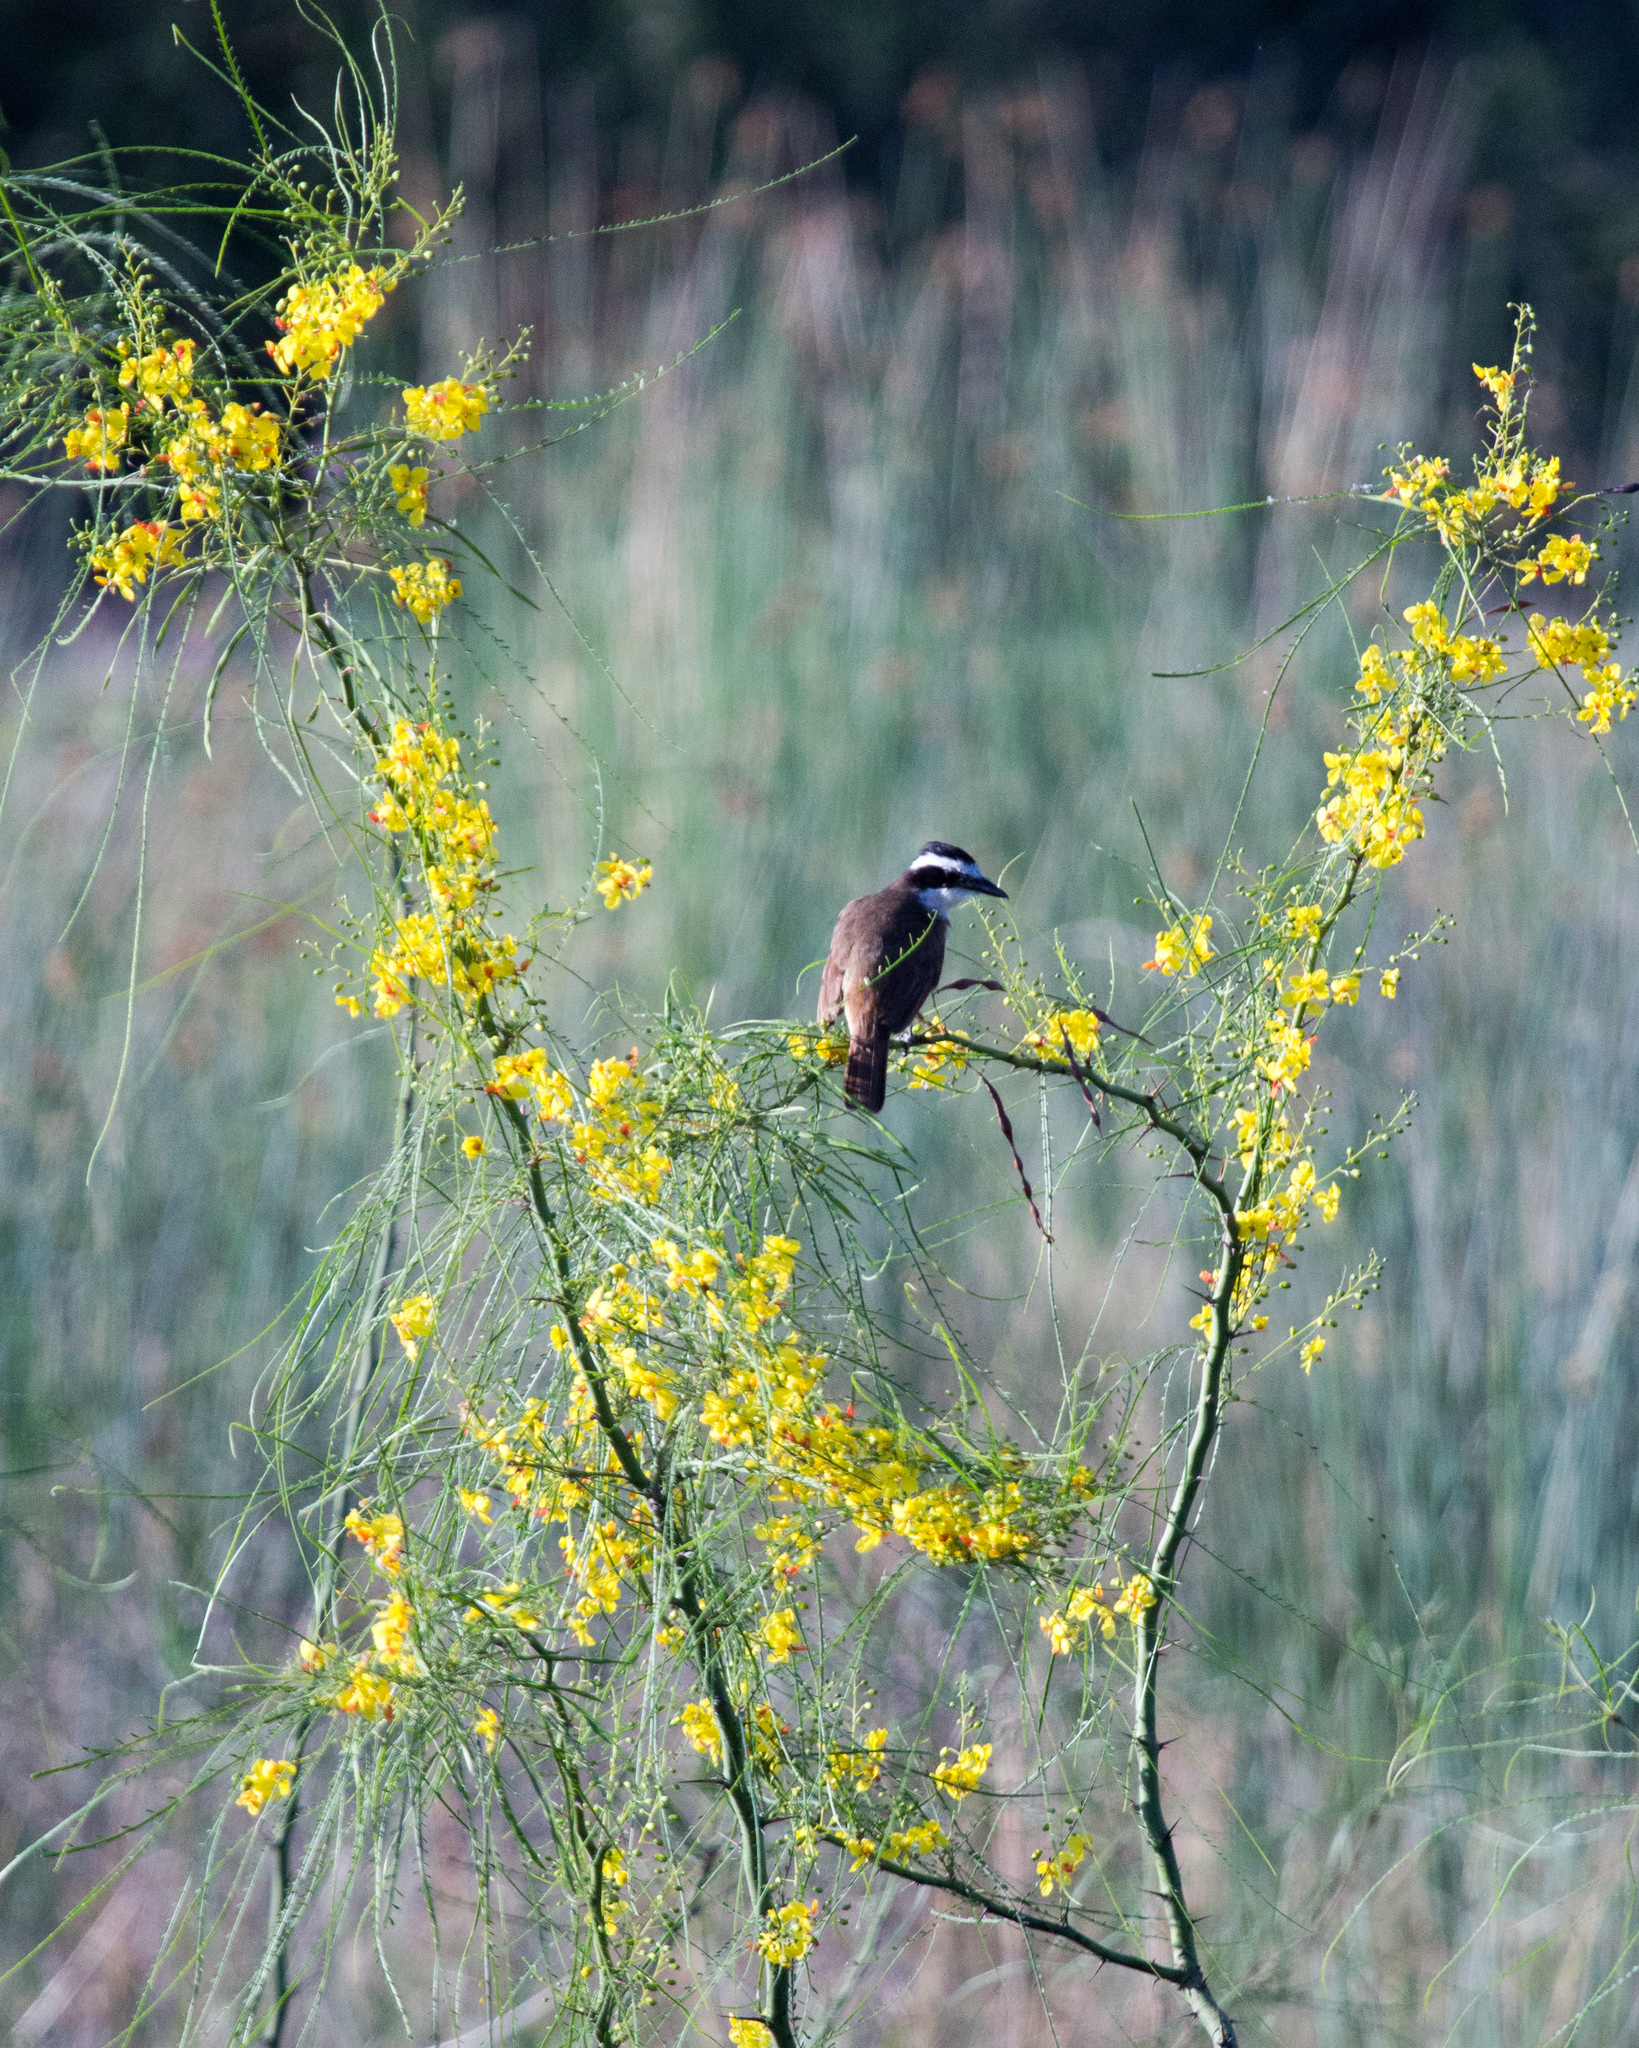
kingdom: Animalia
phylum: Chordata
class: Aves
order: Passeriformes
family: Tyrannidae
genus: Pitangus
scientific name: Pitangus sulphuratus
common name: Great kiskadee
